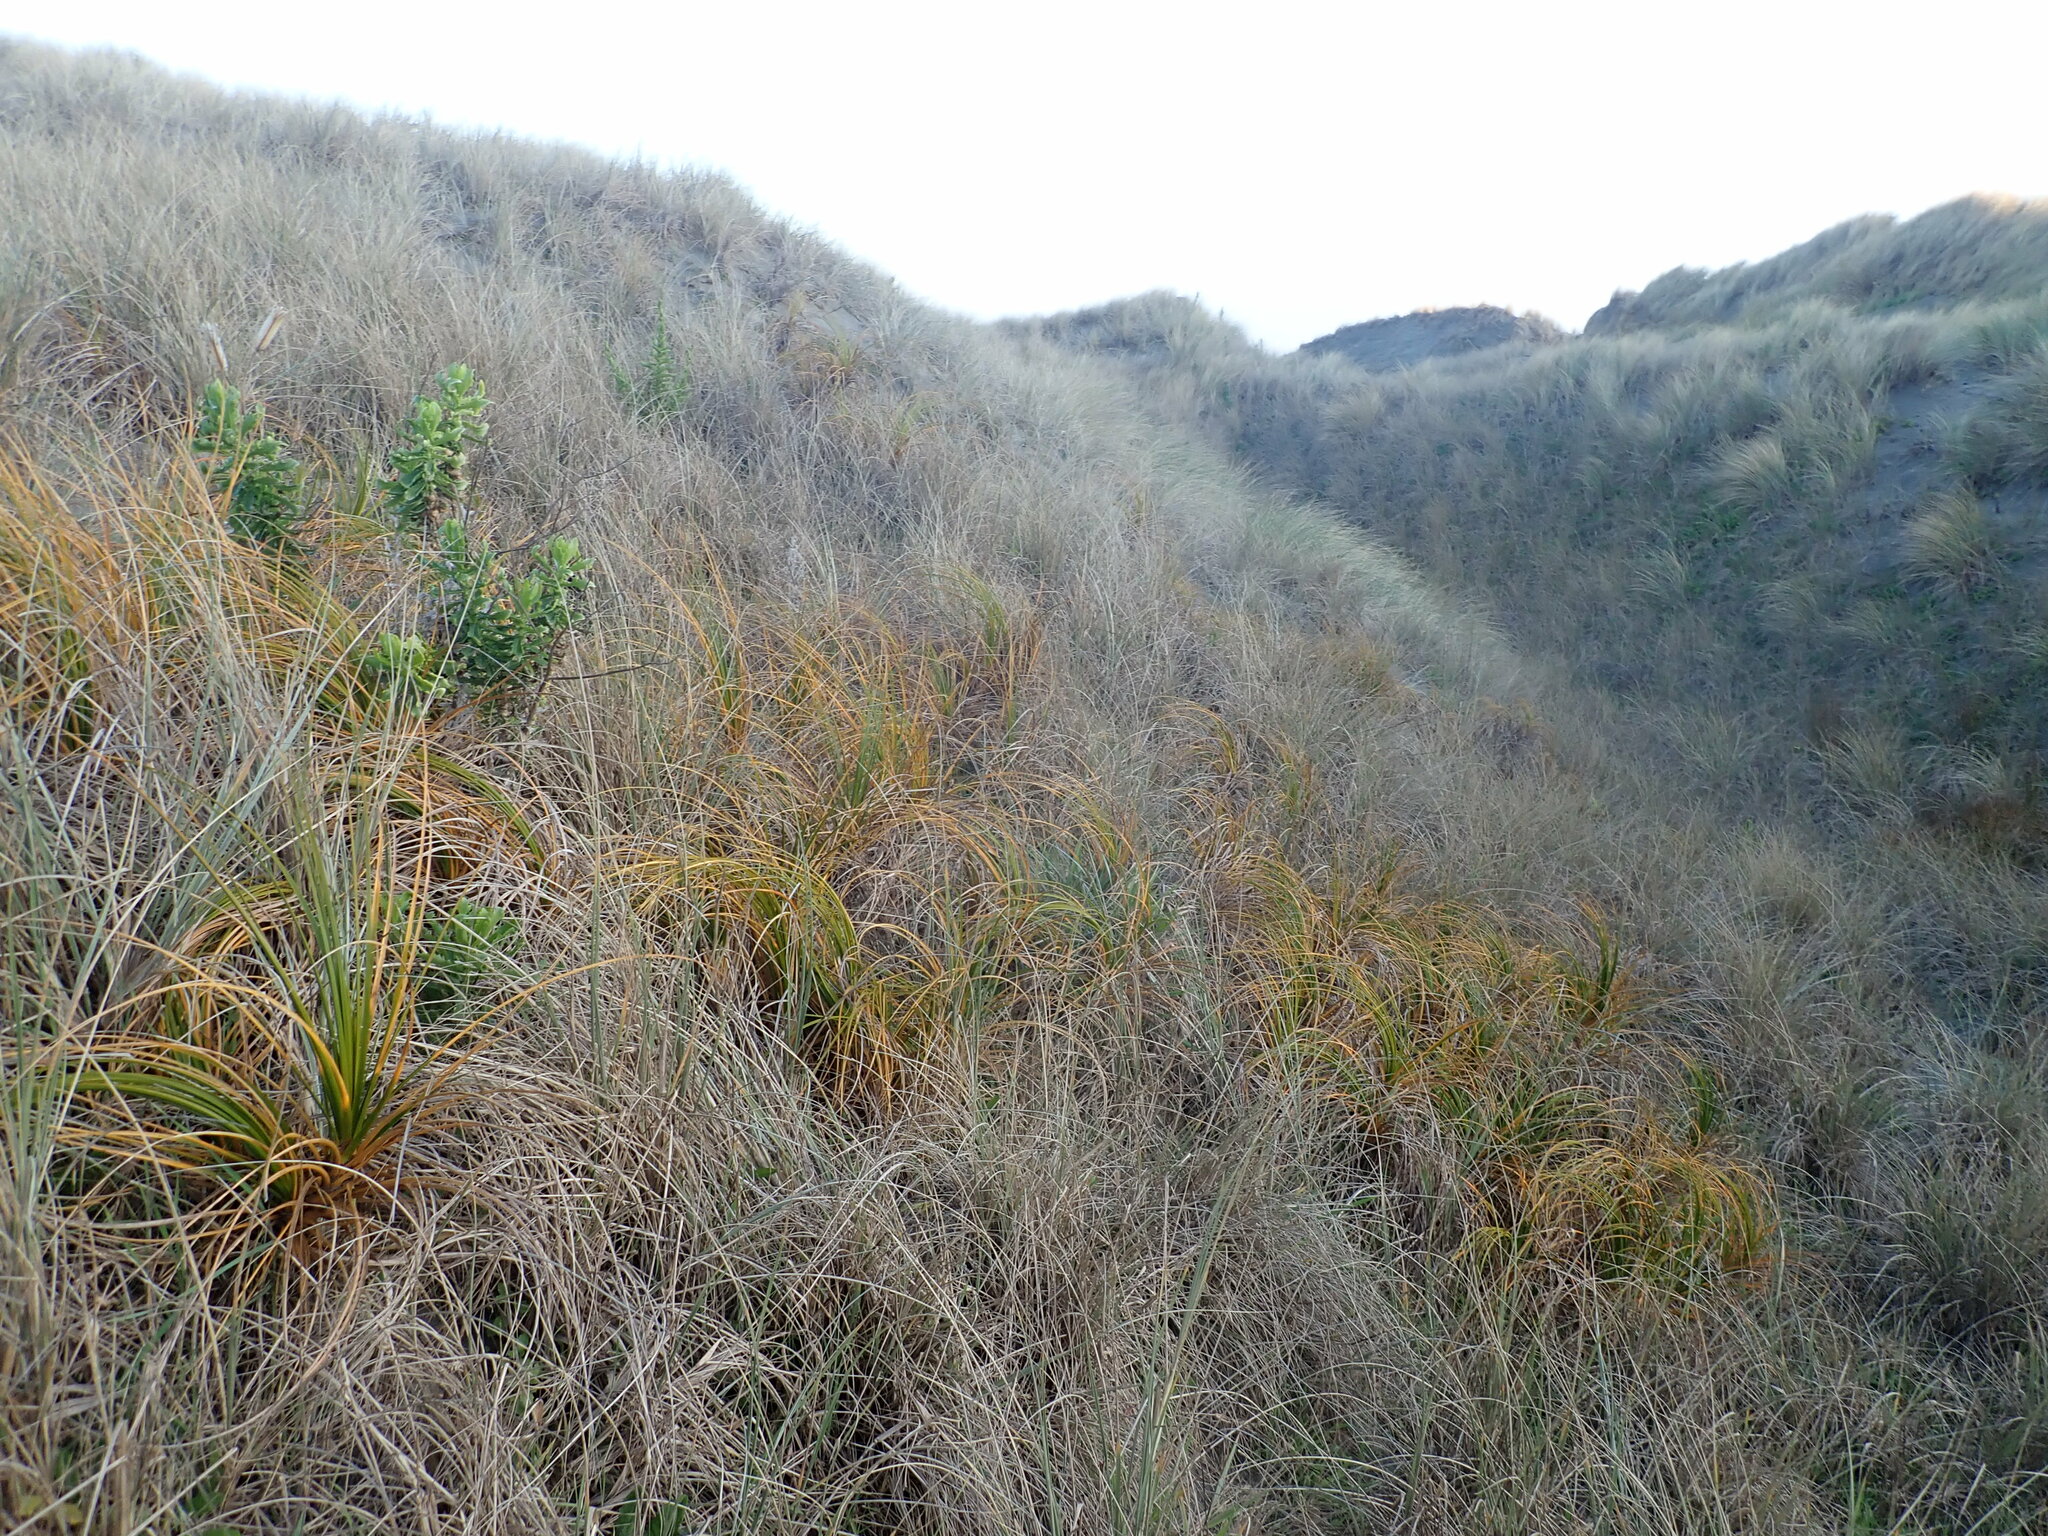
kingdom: Plantae
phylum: Tracheophyta
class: Liliopsida
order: Poales
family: Cyperaceae
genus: Ficinia
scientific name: Ficinia spiralis
